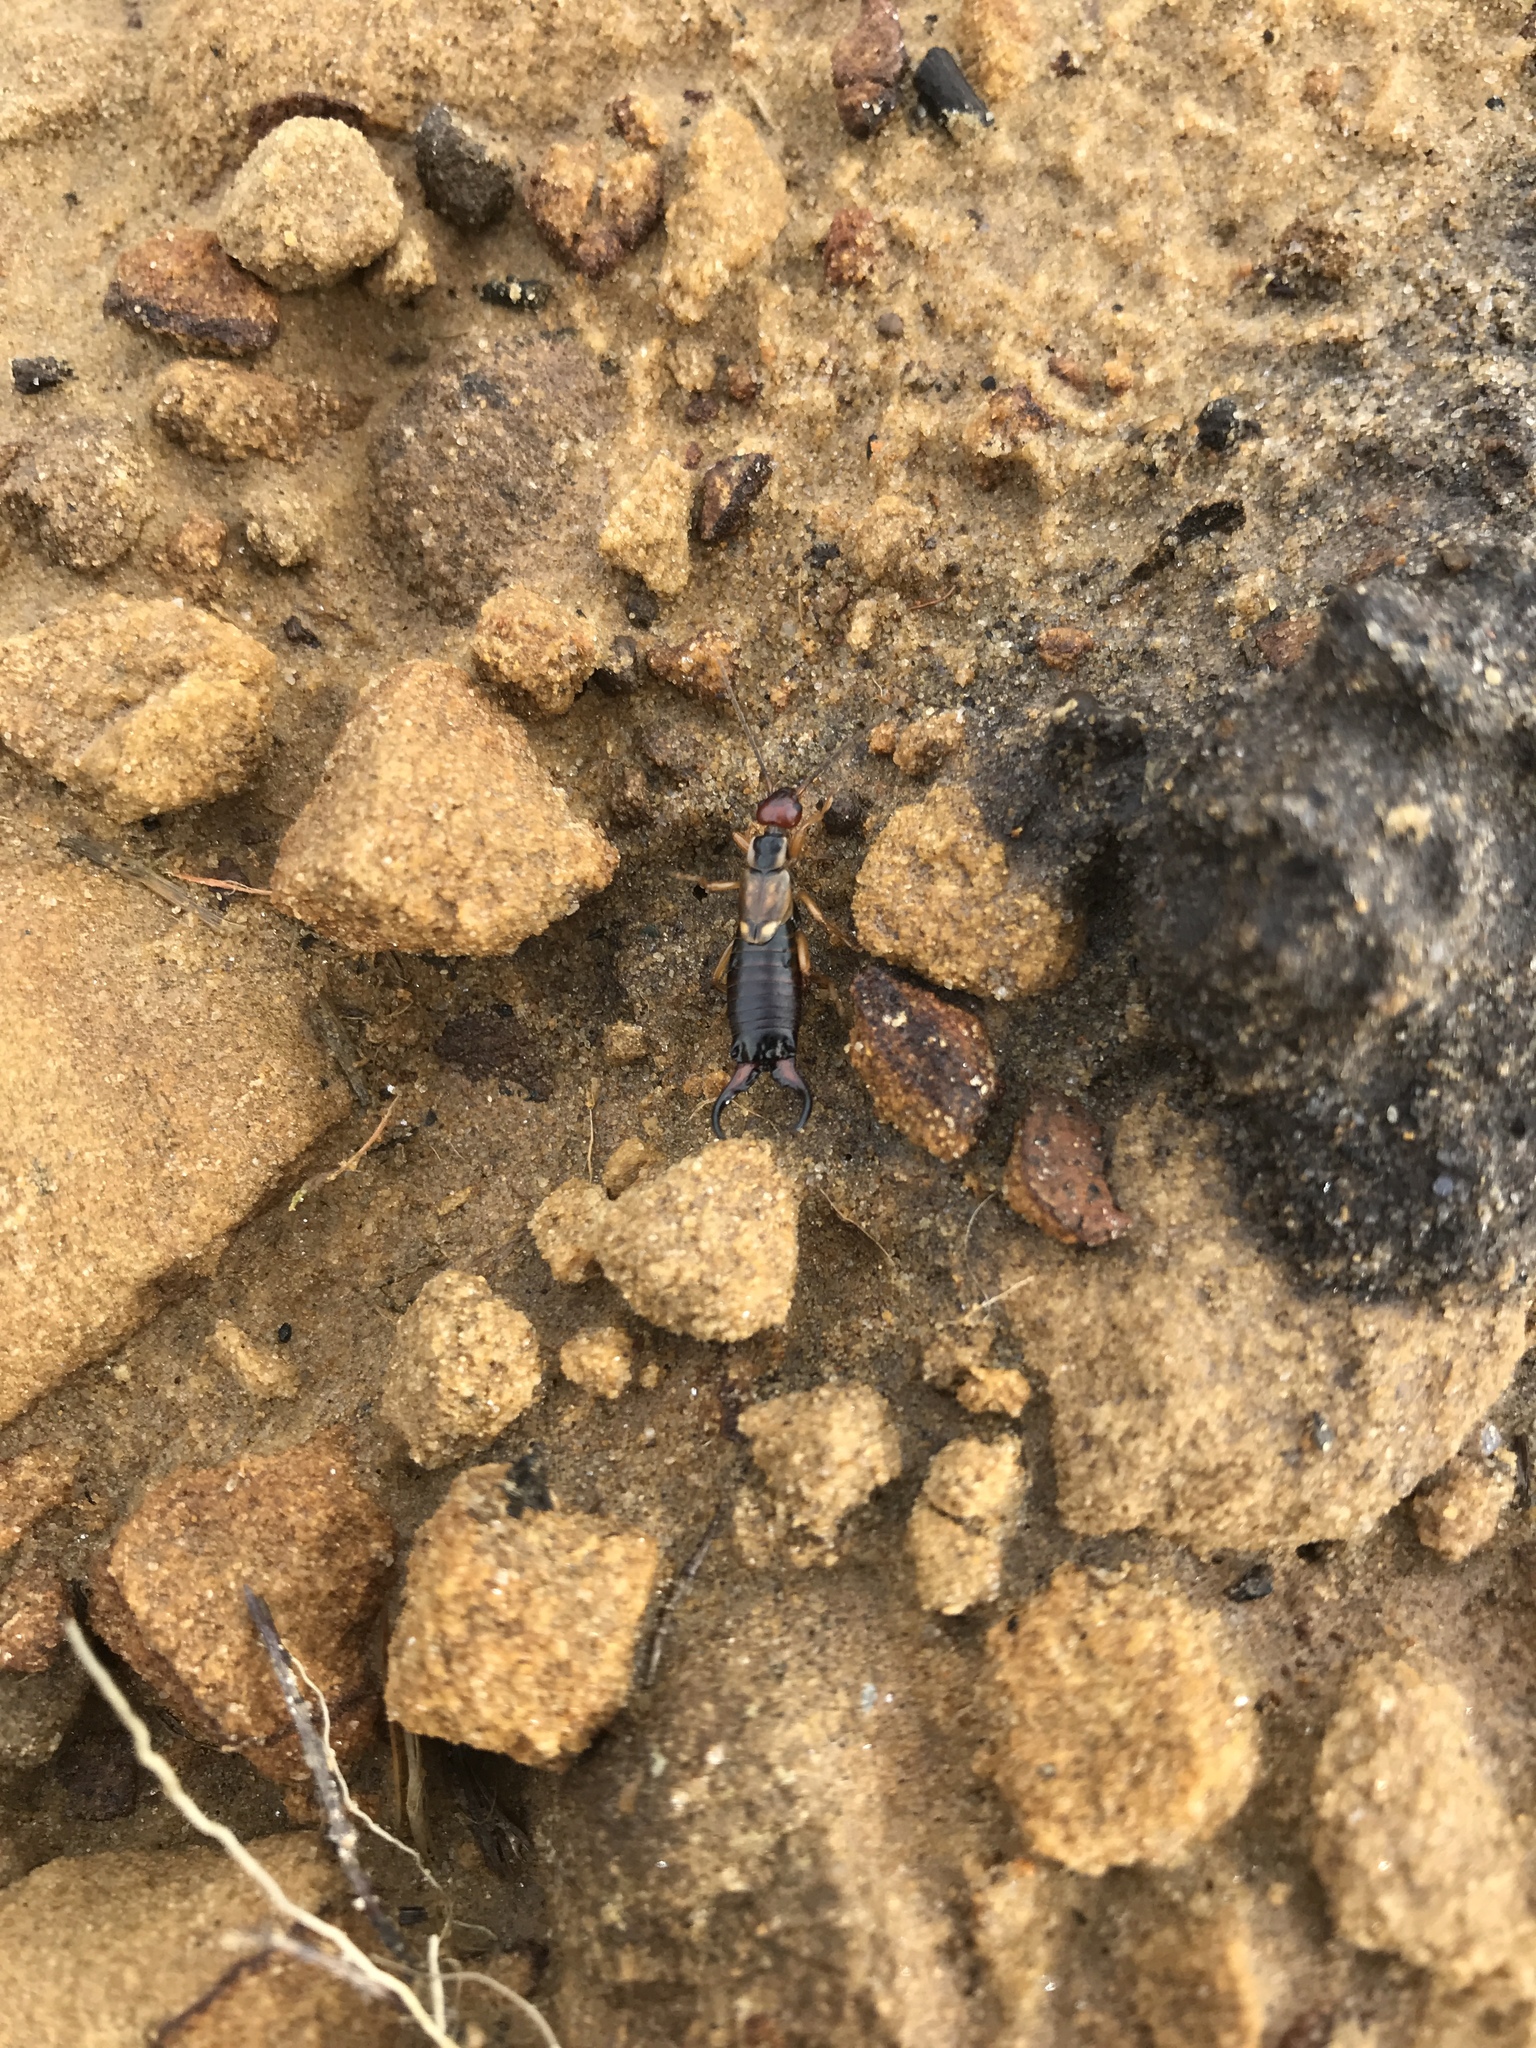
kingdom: Animalia
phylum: Arthropoda
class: Insecta
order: Dermaptera
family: Forficulidae
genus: Forficula
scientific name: Forficula
